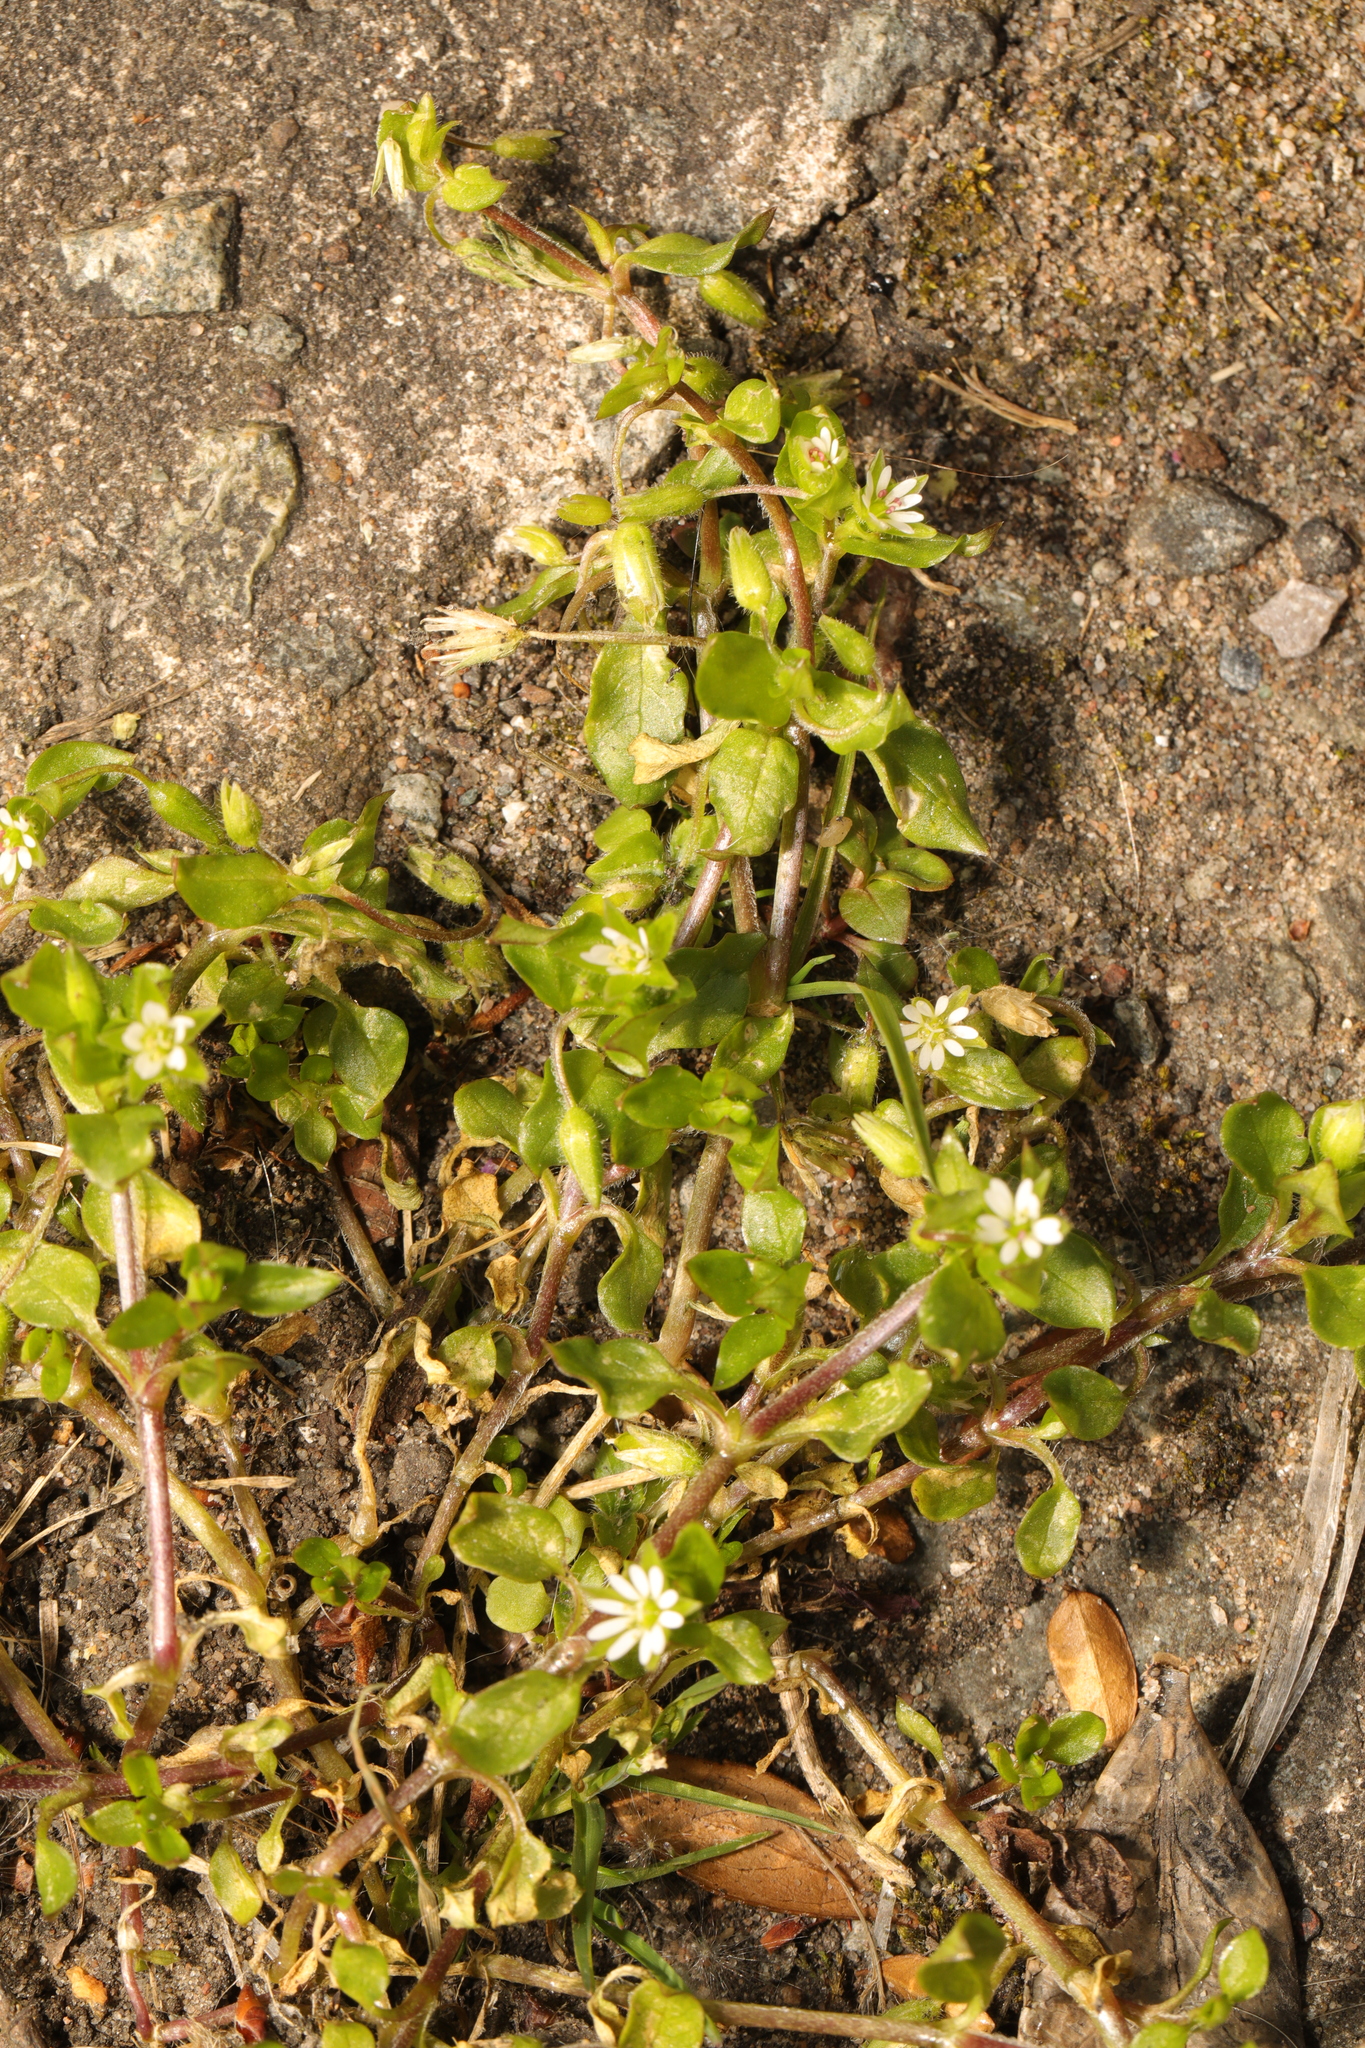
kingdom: Plantae
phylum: Tracheophyta
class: Magnoliopsida
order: Caryophyllales
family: Caryophyllaceae
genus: Stellaria
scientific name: Stellaria media
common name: Common chickweed
